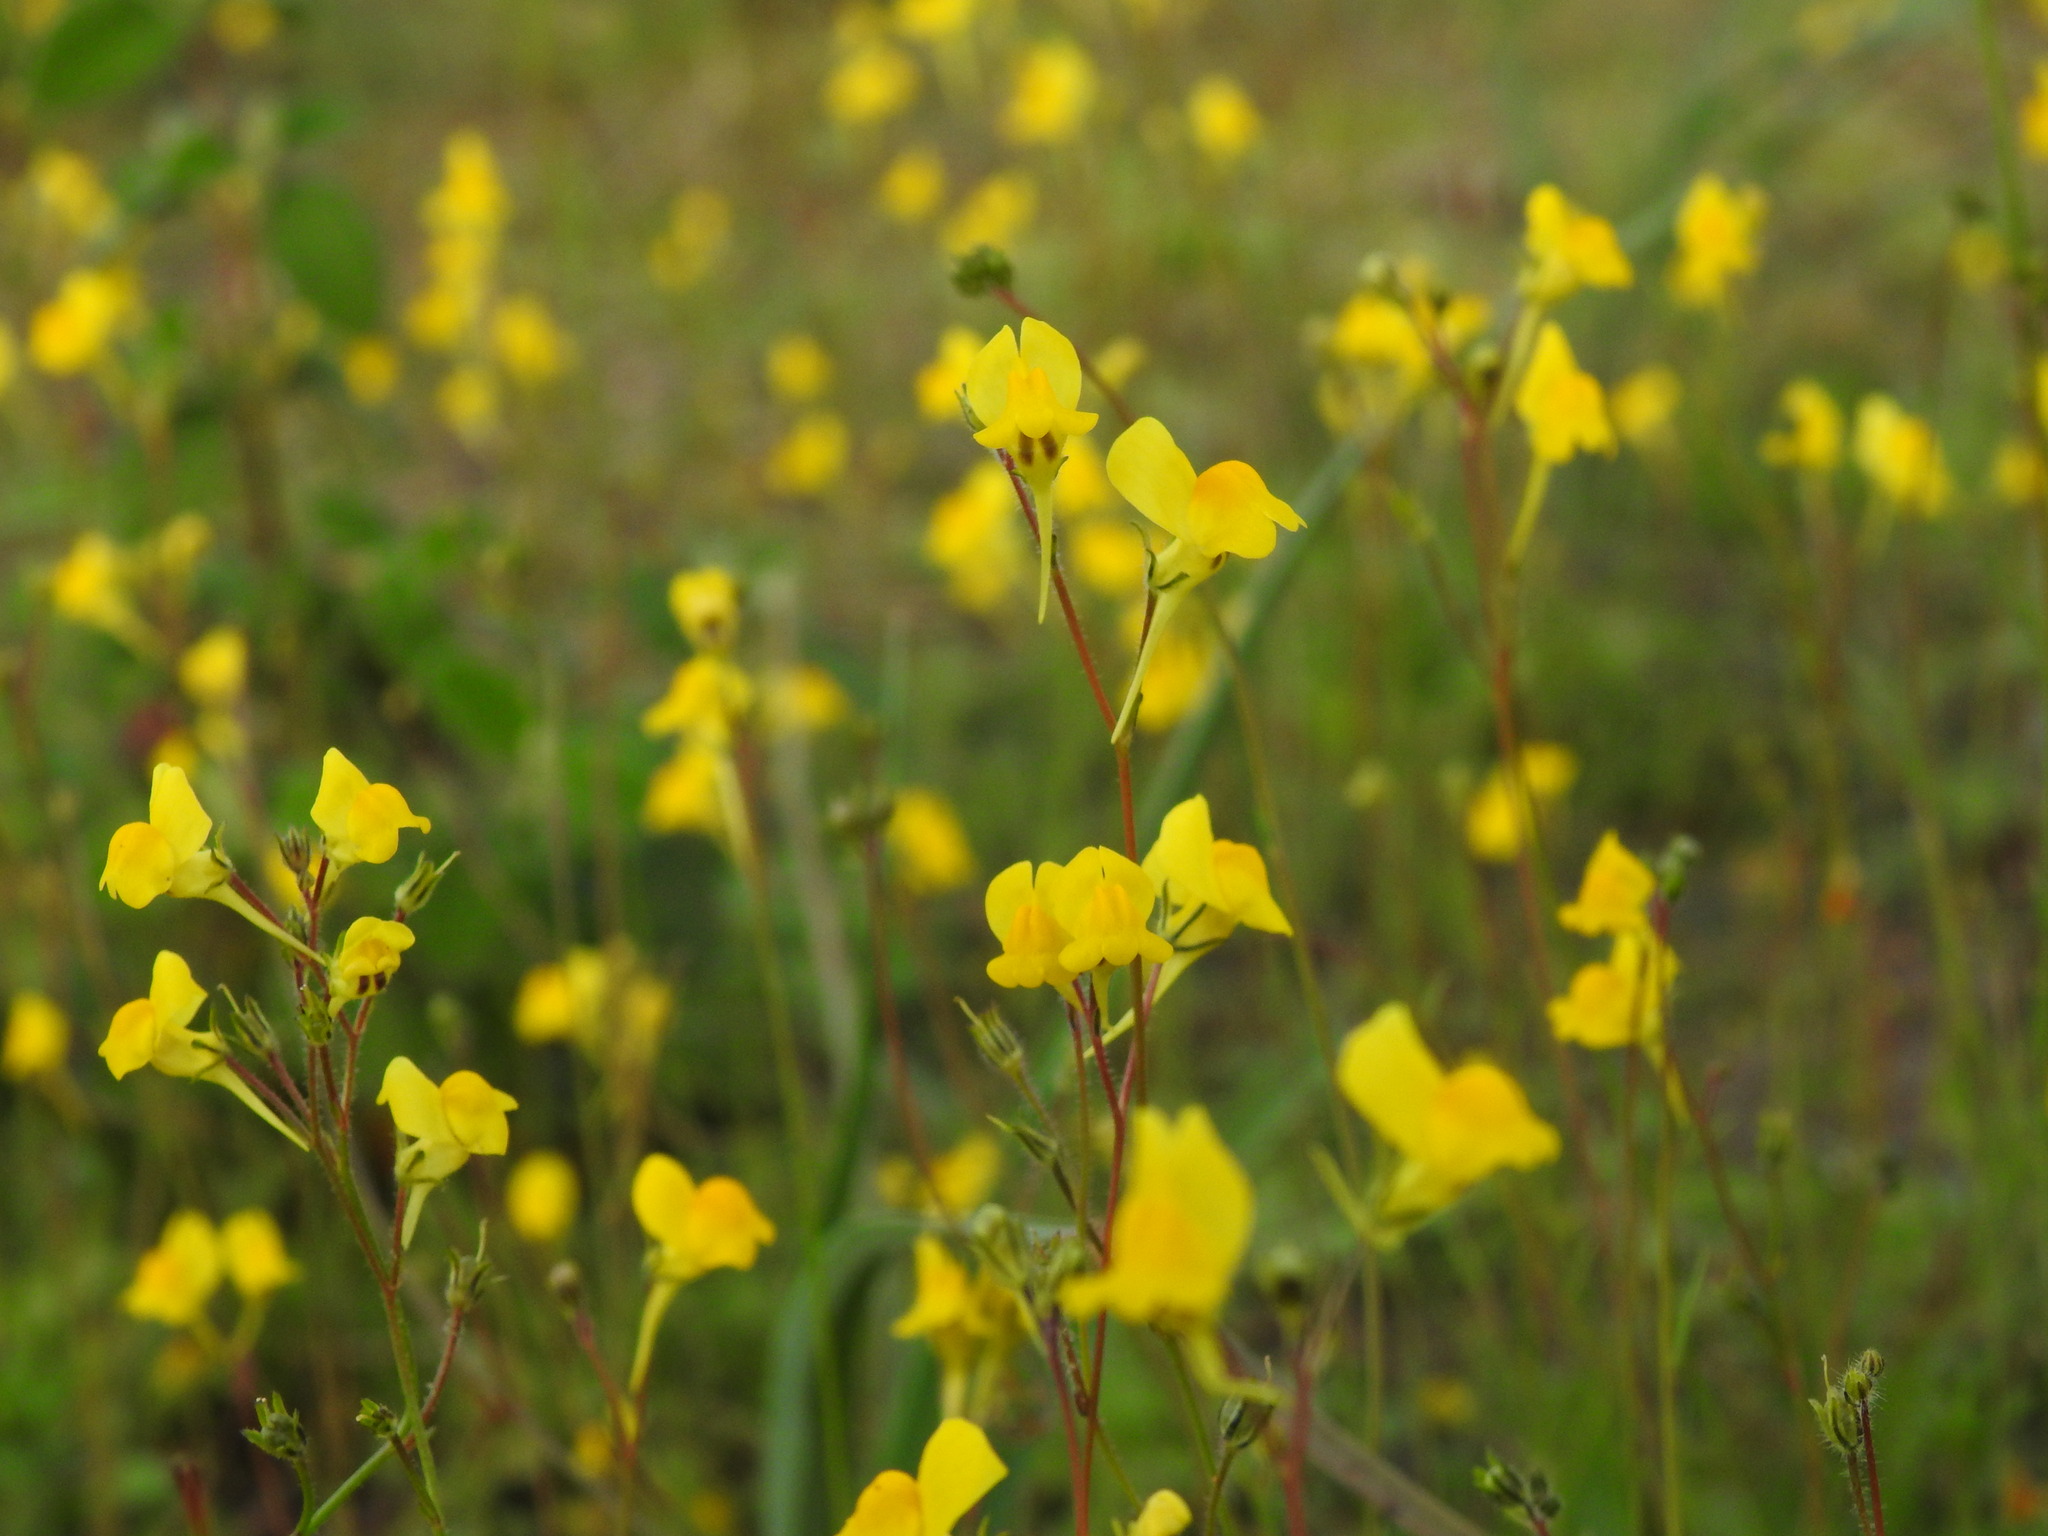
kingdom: Plantae
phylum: Tracheophyta
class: Magnoliopsida
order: Lamiales
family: Plantaginaceae
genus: Linaria
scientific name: Linaria spartea
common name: Ballast toadflax
